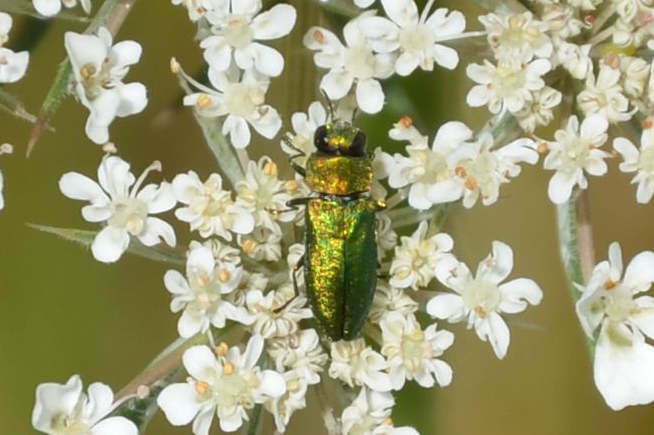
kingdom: Animalia
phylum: Arthropoda
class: Insecta
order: Coleoptera
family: Buprestidae
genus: Anthaxia
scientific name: Anthaxia nitidula
